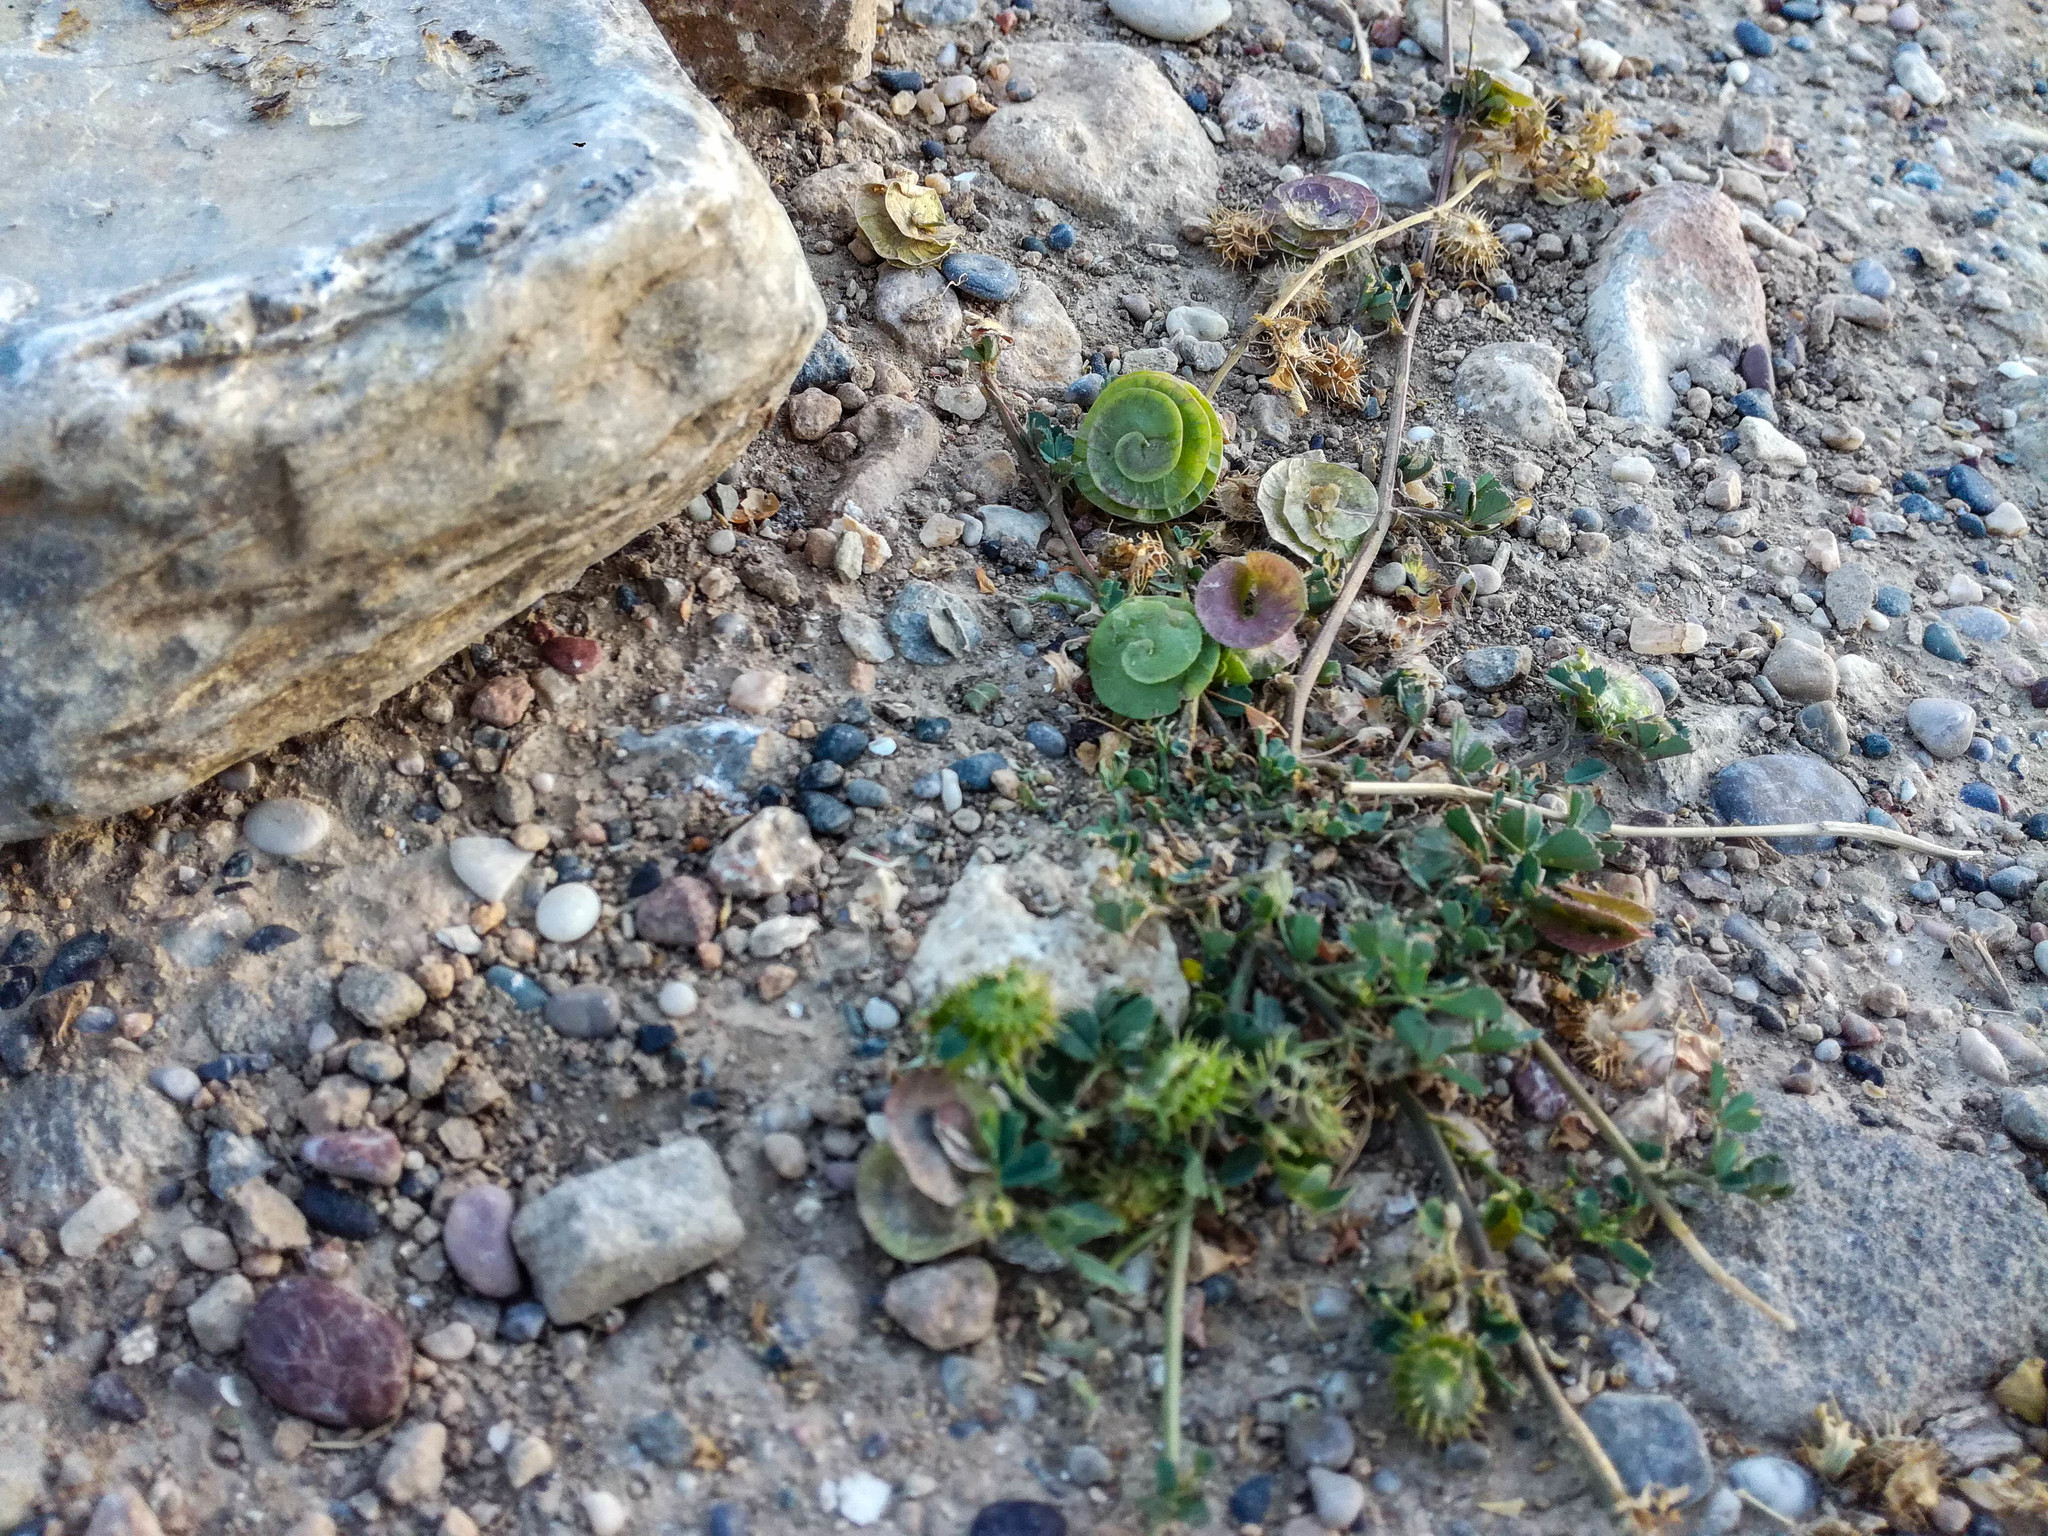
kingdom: Plantae
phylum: Tracheophyta
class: Magnoliopsida
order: Fabales
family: Fabaceae
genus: Medicago
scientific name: Medicago orbicularis
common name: Button medick
